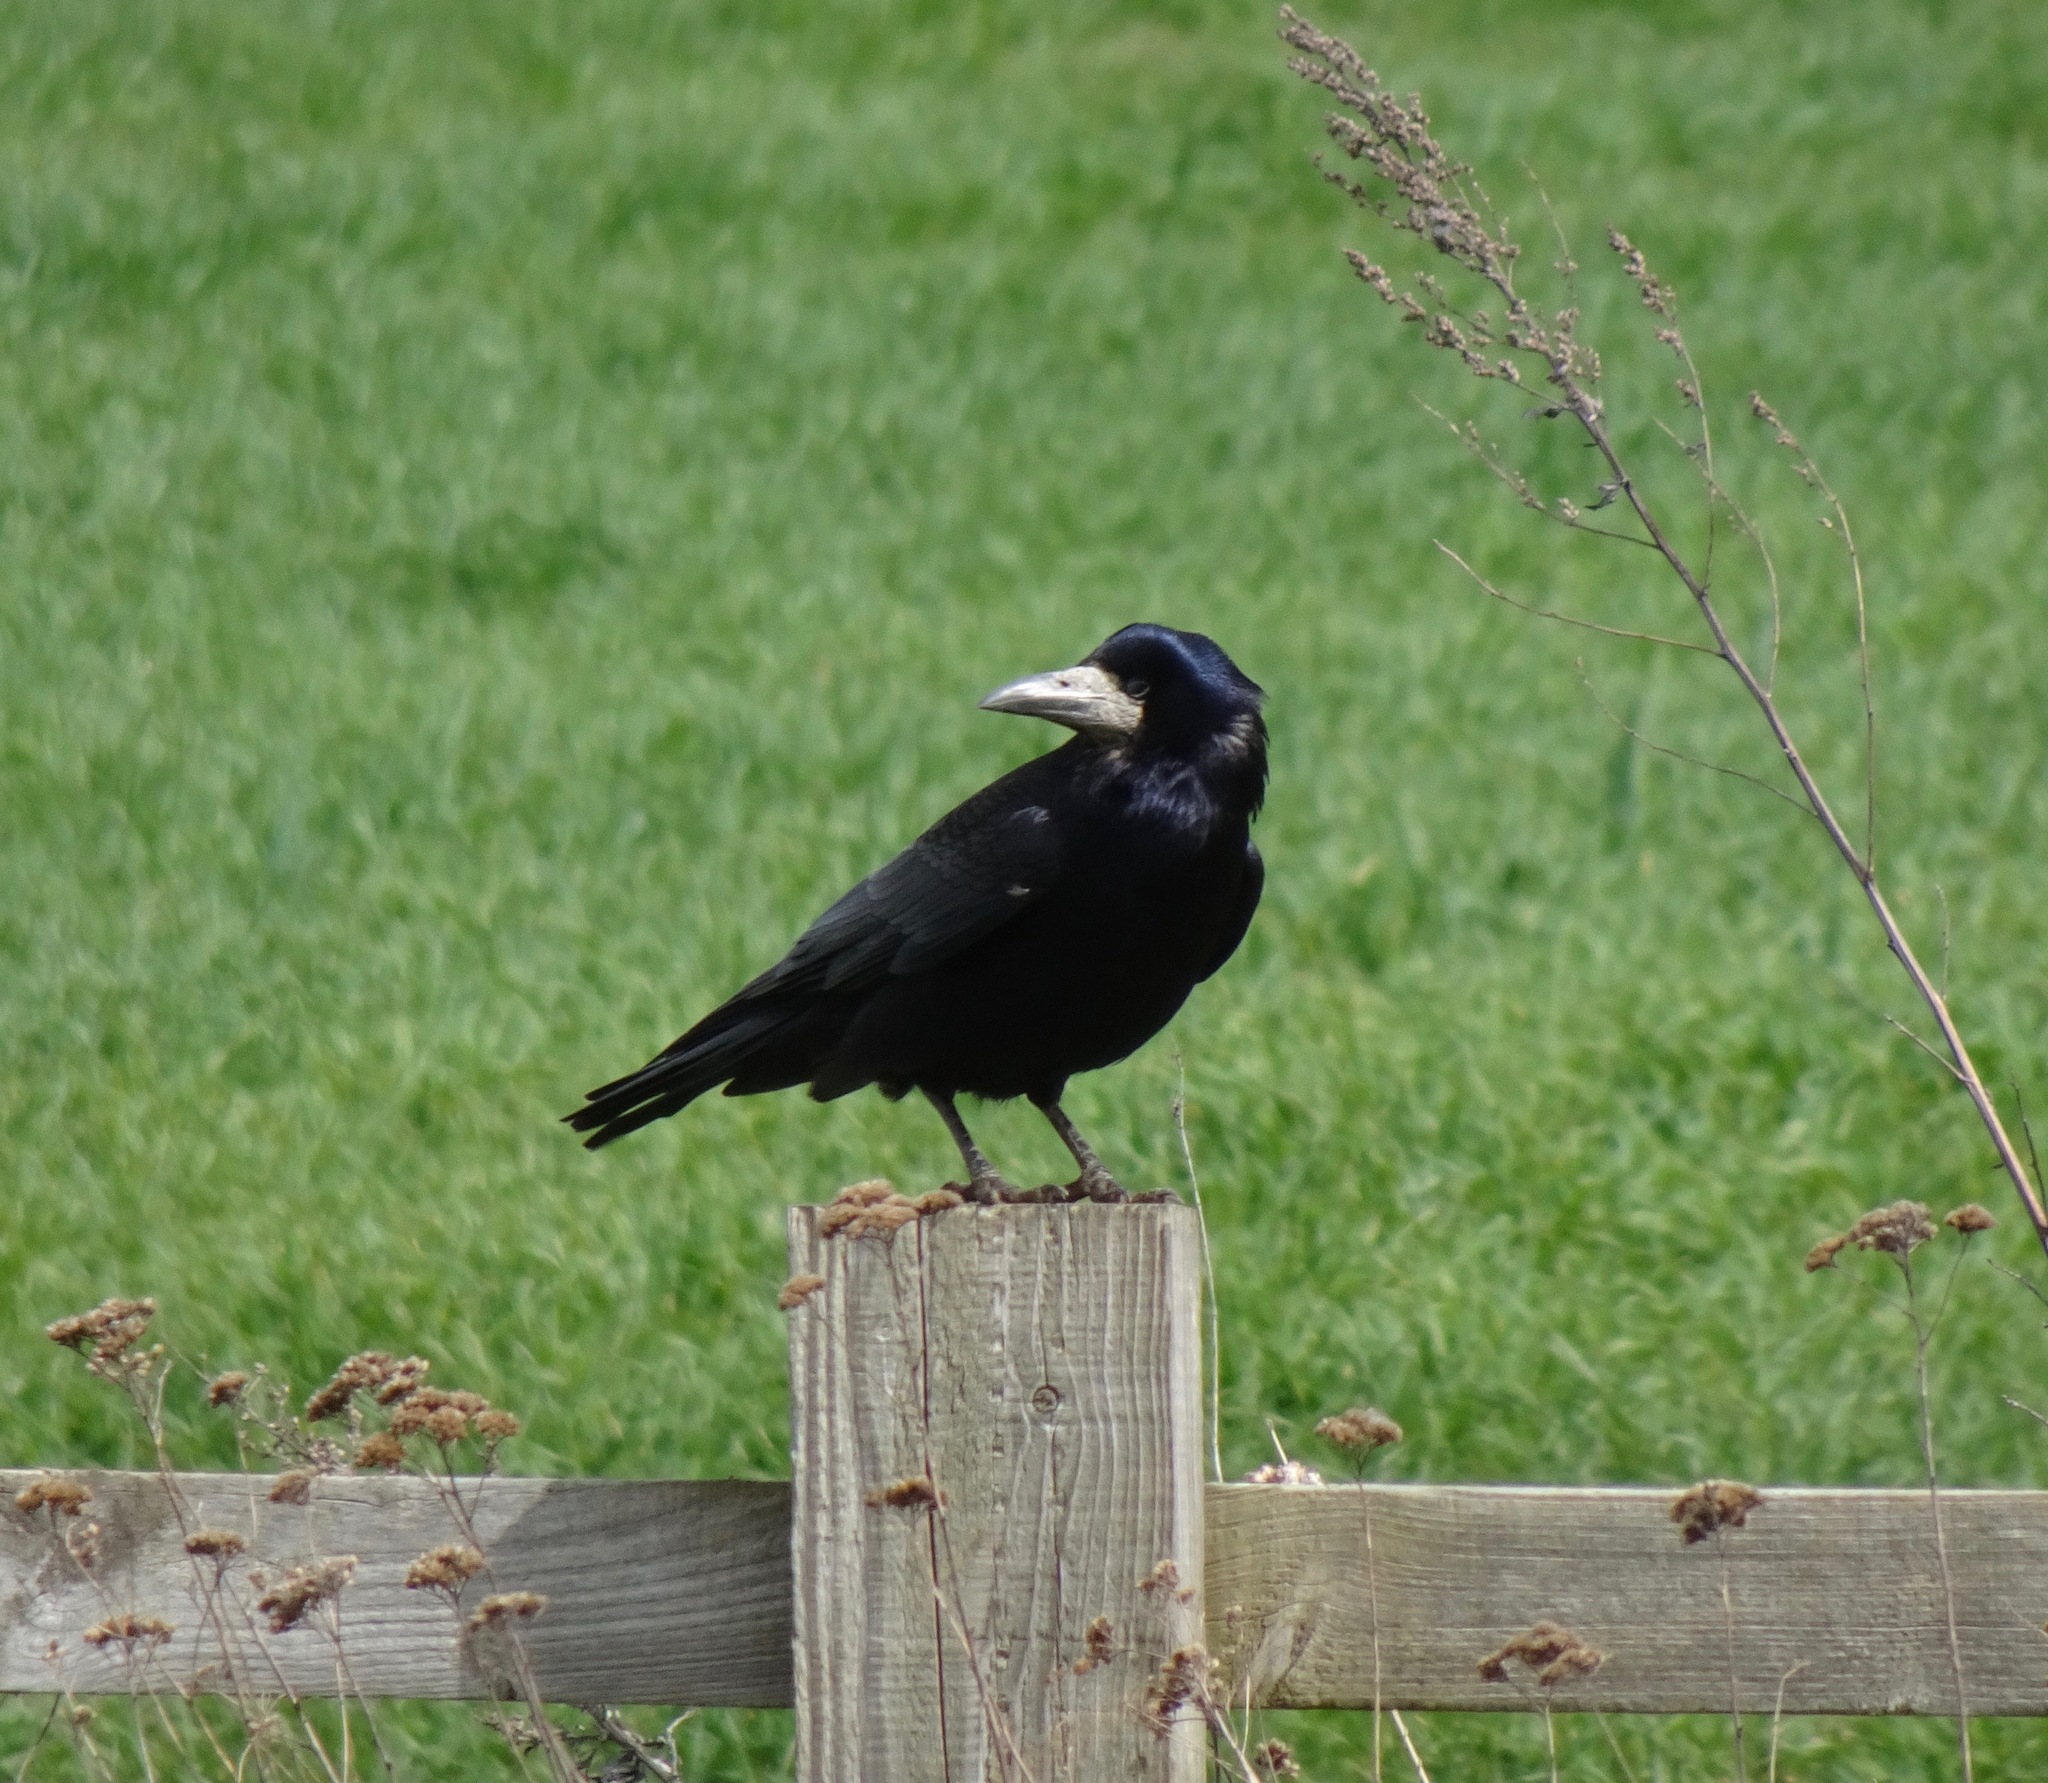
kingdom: Animalia
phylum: Chordata
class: Aves
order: Passeriformes
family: Corvidae
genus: Corvus
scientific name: Corvus frugilegus
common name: Rook
